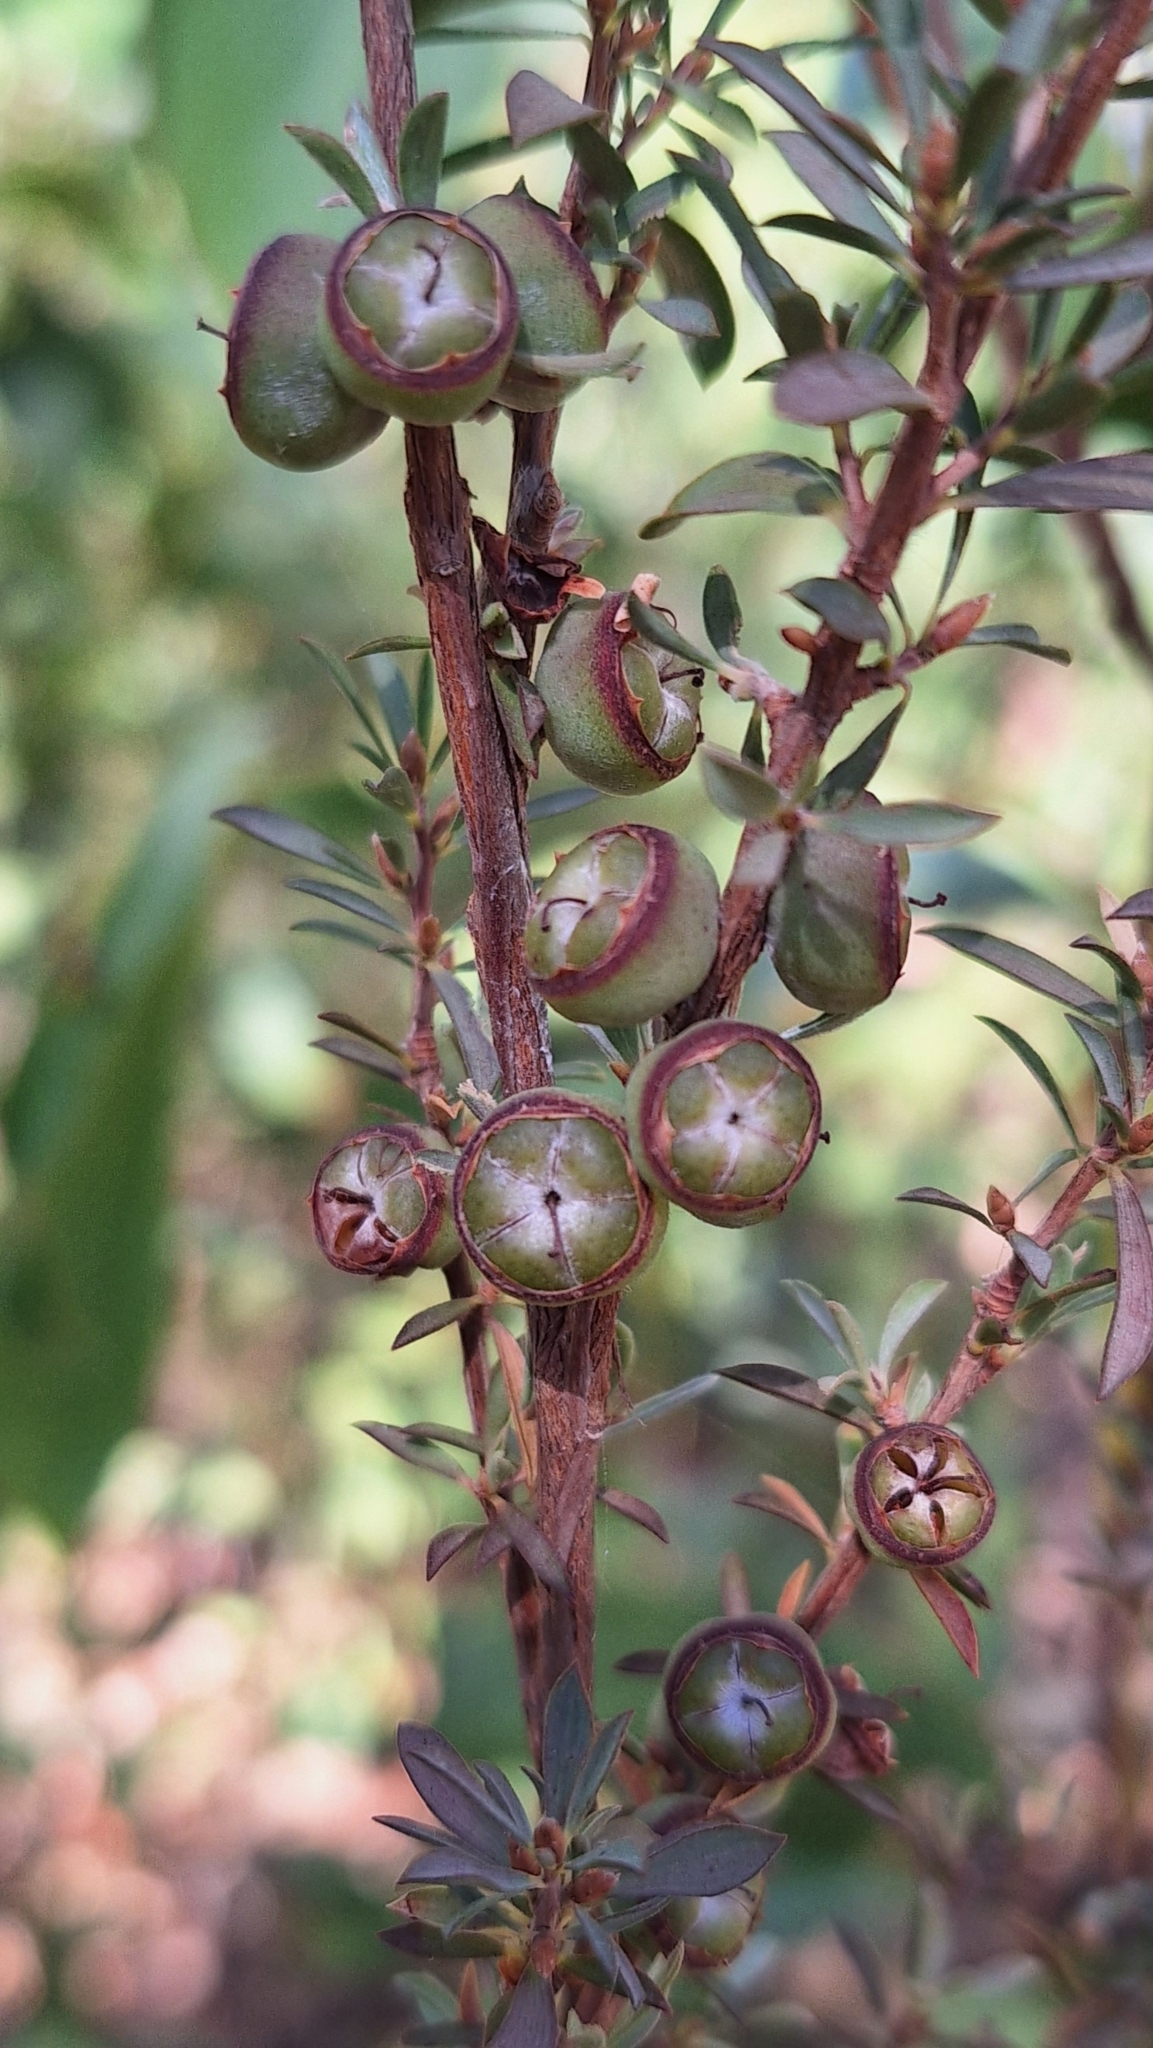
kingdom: Plantae
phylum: Tracheophyta
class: Magnoliopsida
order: Myrtales
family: Myrtaceae
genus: Leptospermum
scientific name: Leptospermum myrsinoides
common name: Heath teatree
